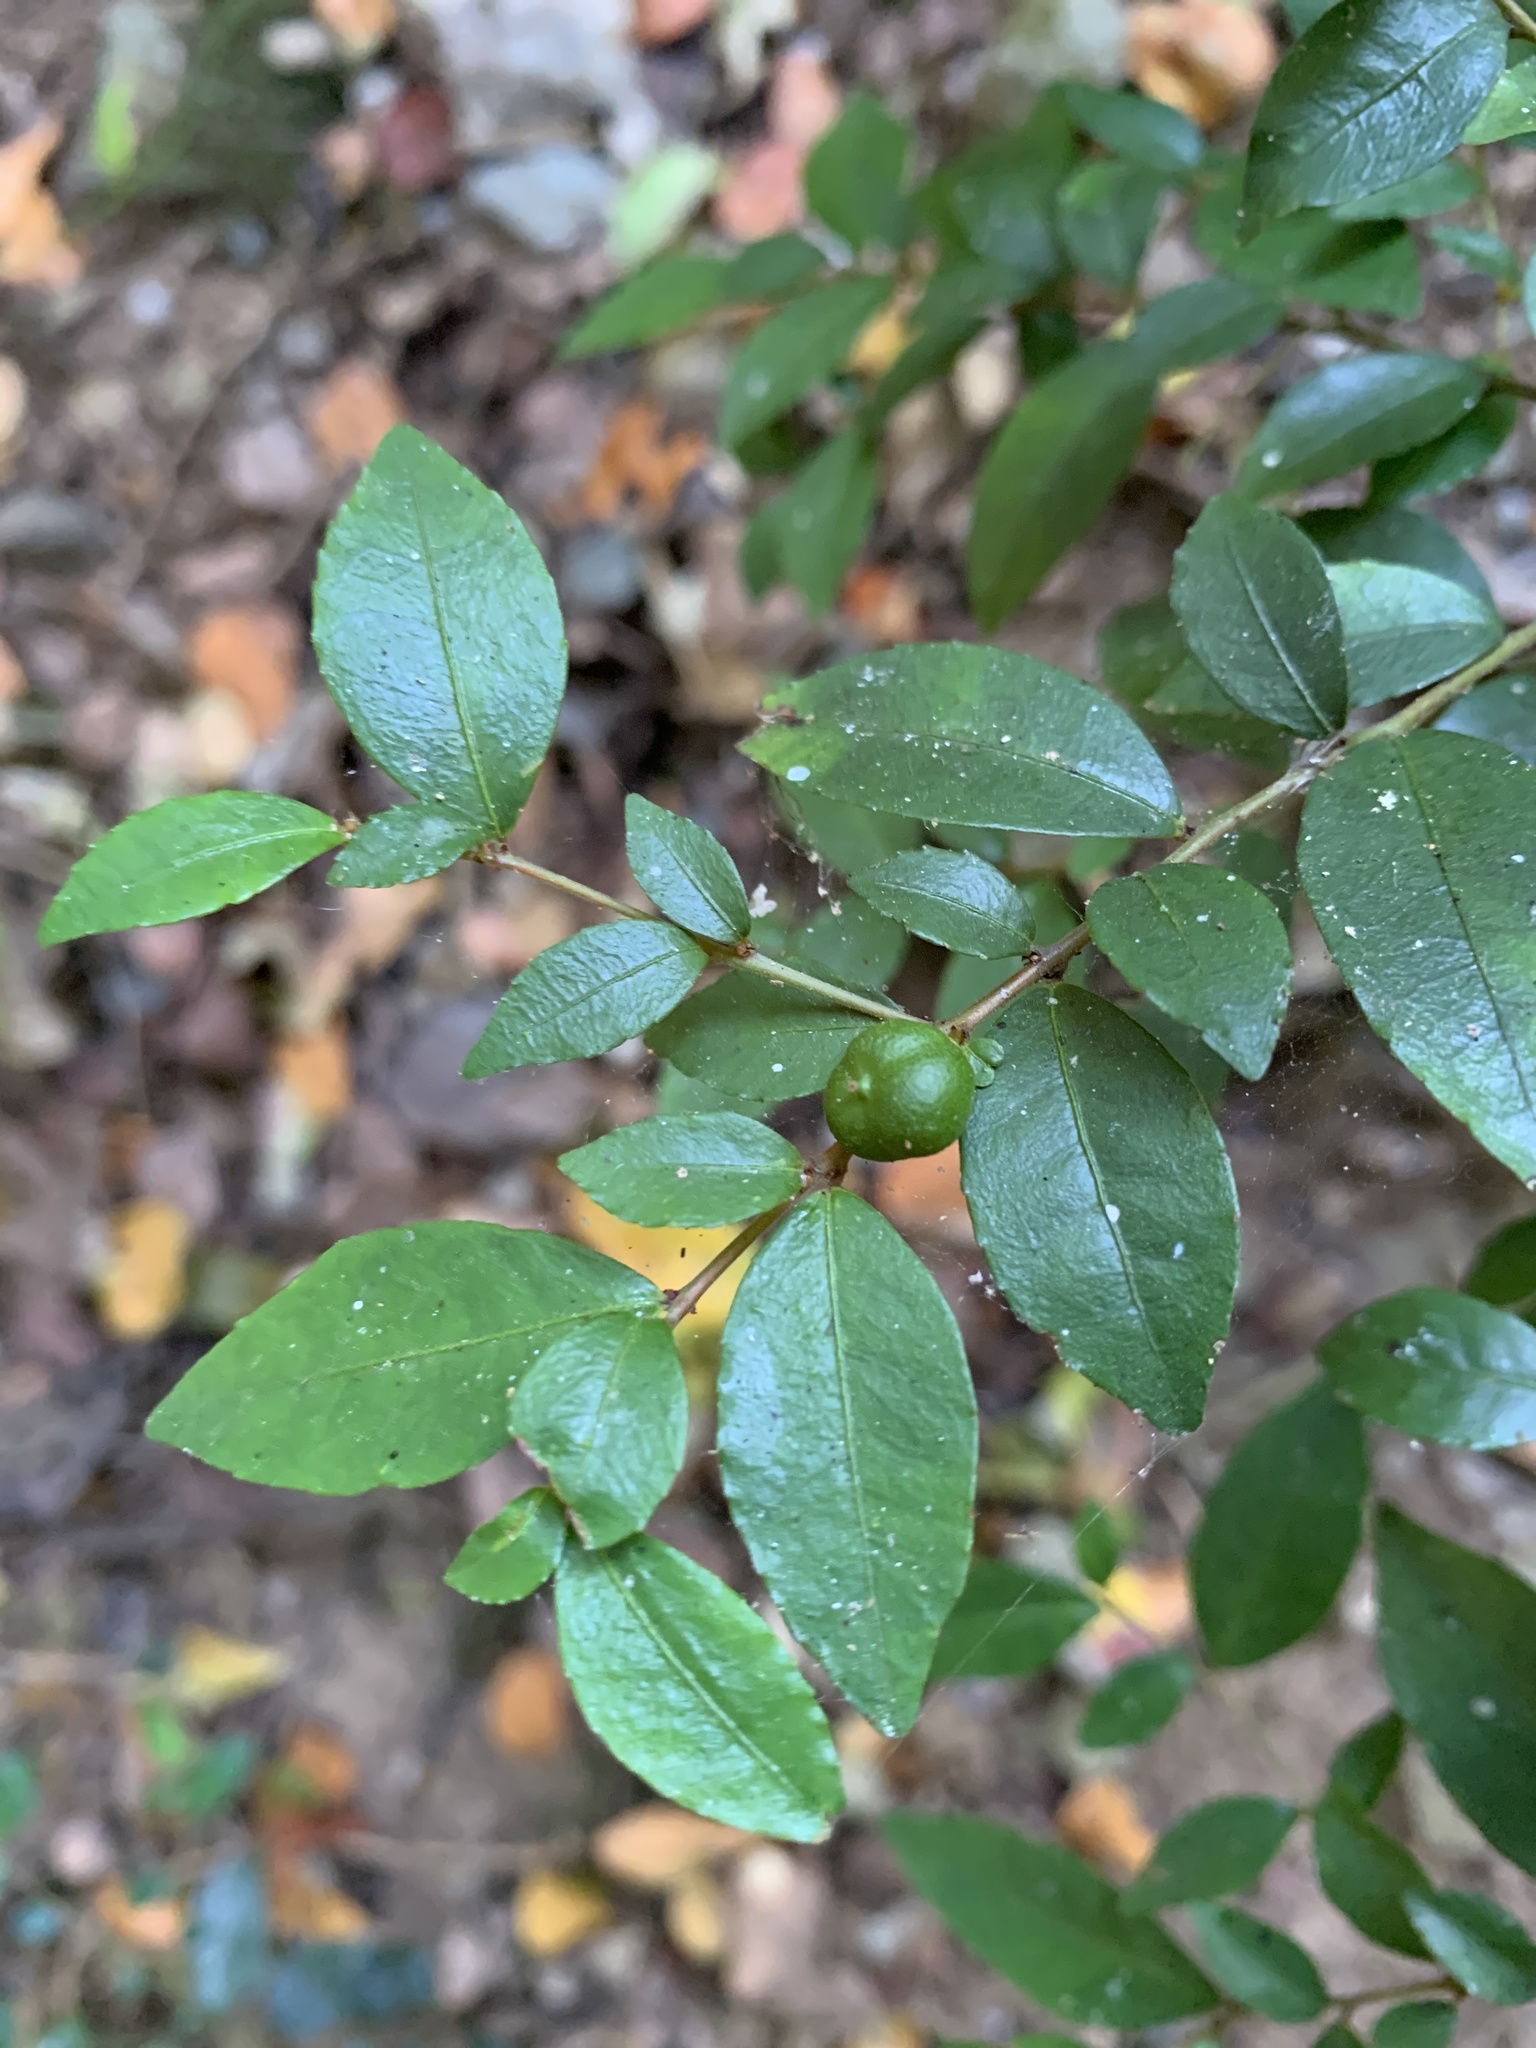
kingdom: Plantae
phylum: Tracheophyta
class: Magnoliopsida
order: Rosales
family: Rhamnaceae
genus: Condalia
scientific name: Condalia maytenoides
